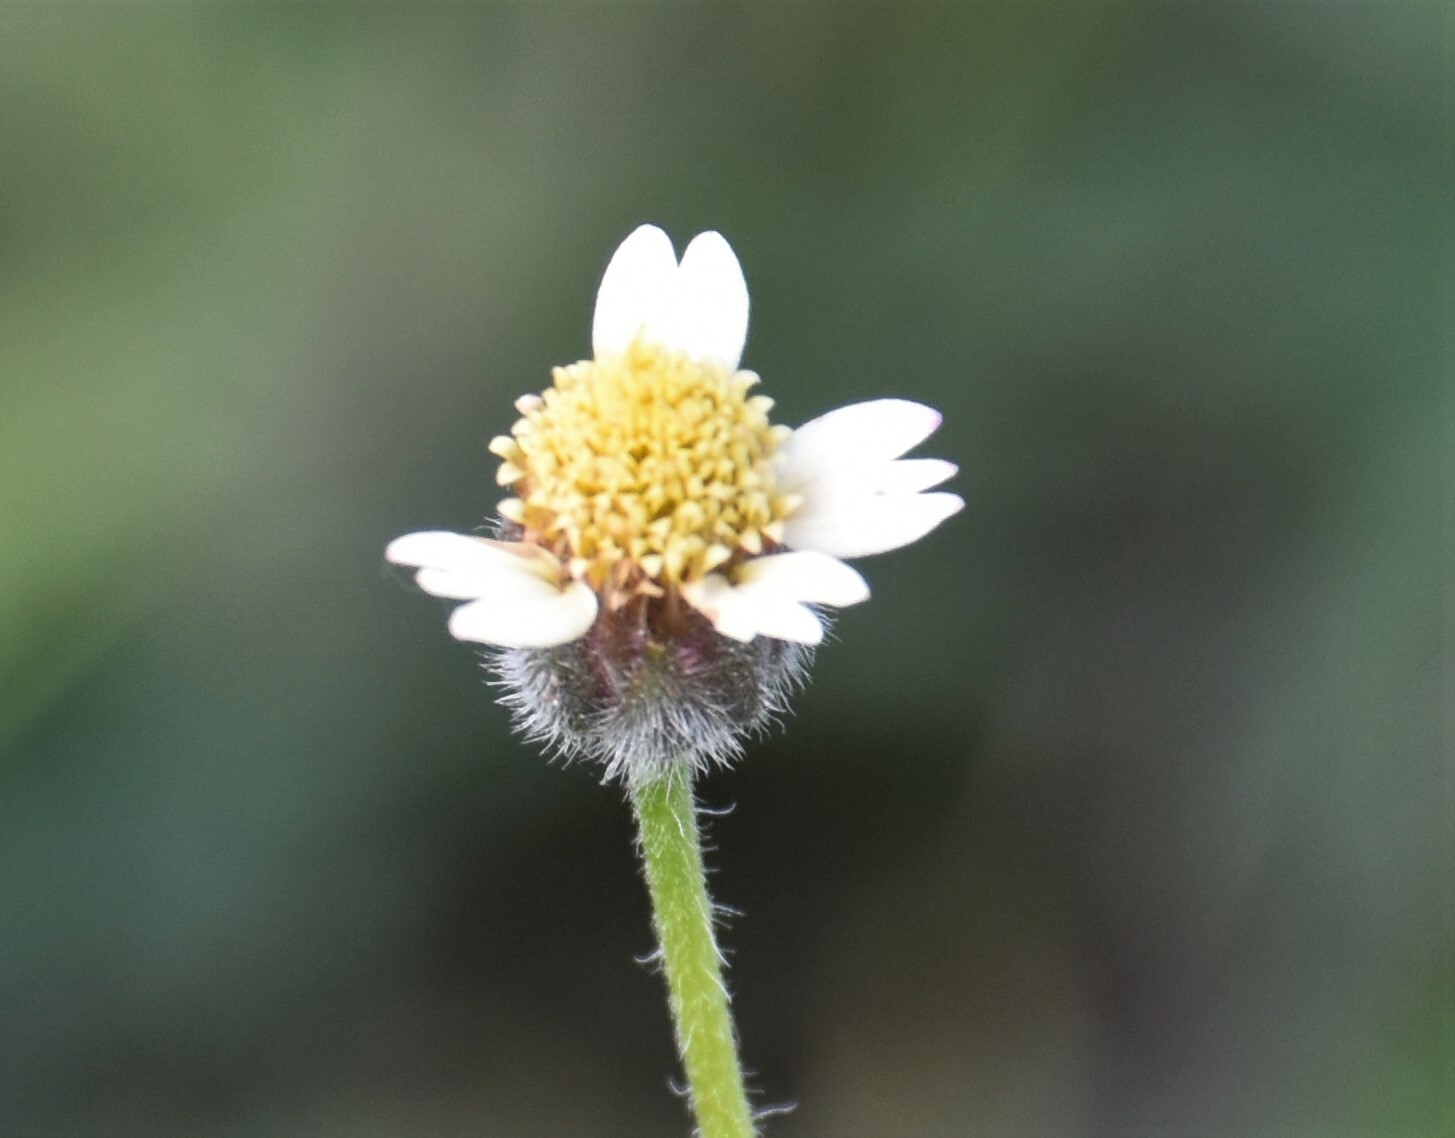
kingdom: Plantae
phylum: Tracheophyta
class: Magnoliopsida
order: Asterales
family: Asteraceae
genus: Tridax
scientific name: Tridax procumbens
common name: Coatbuttons
